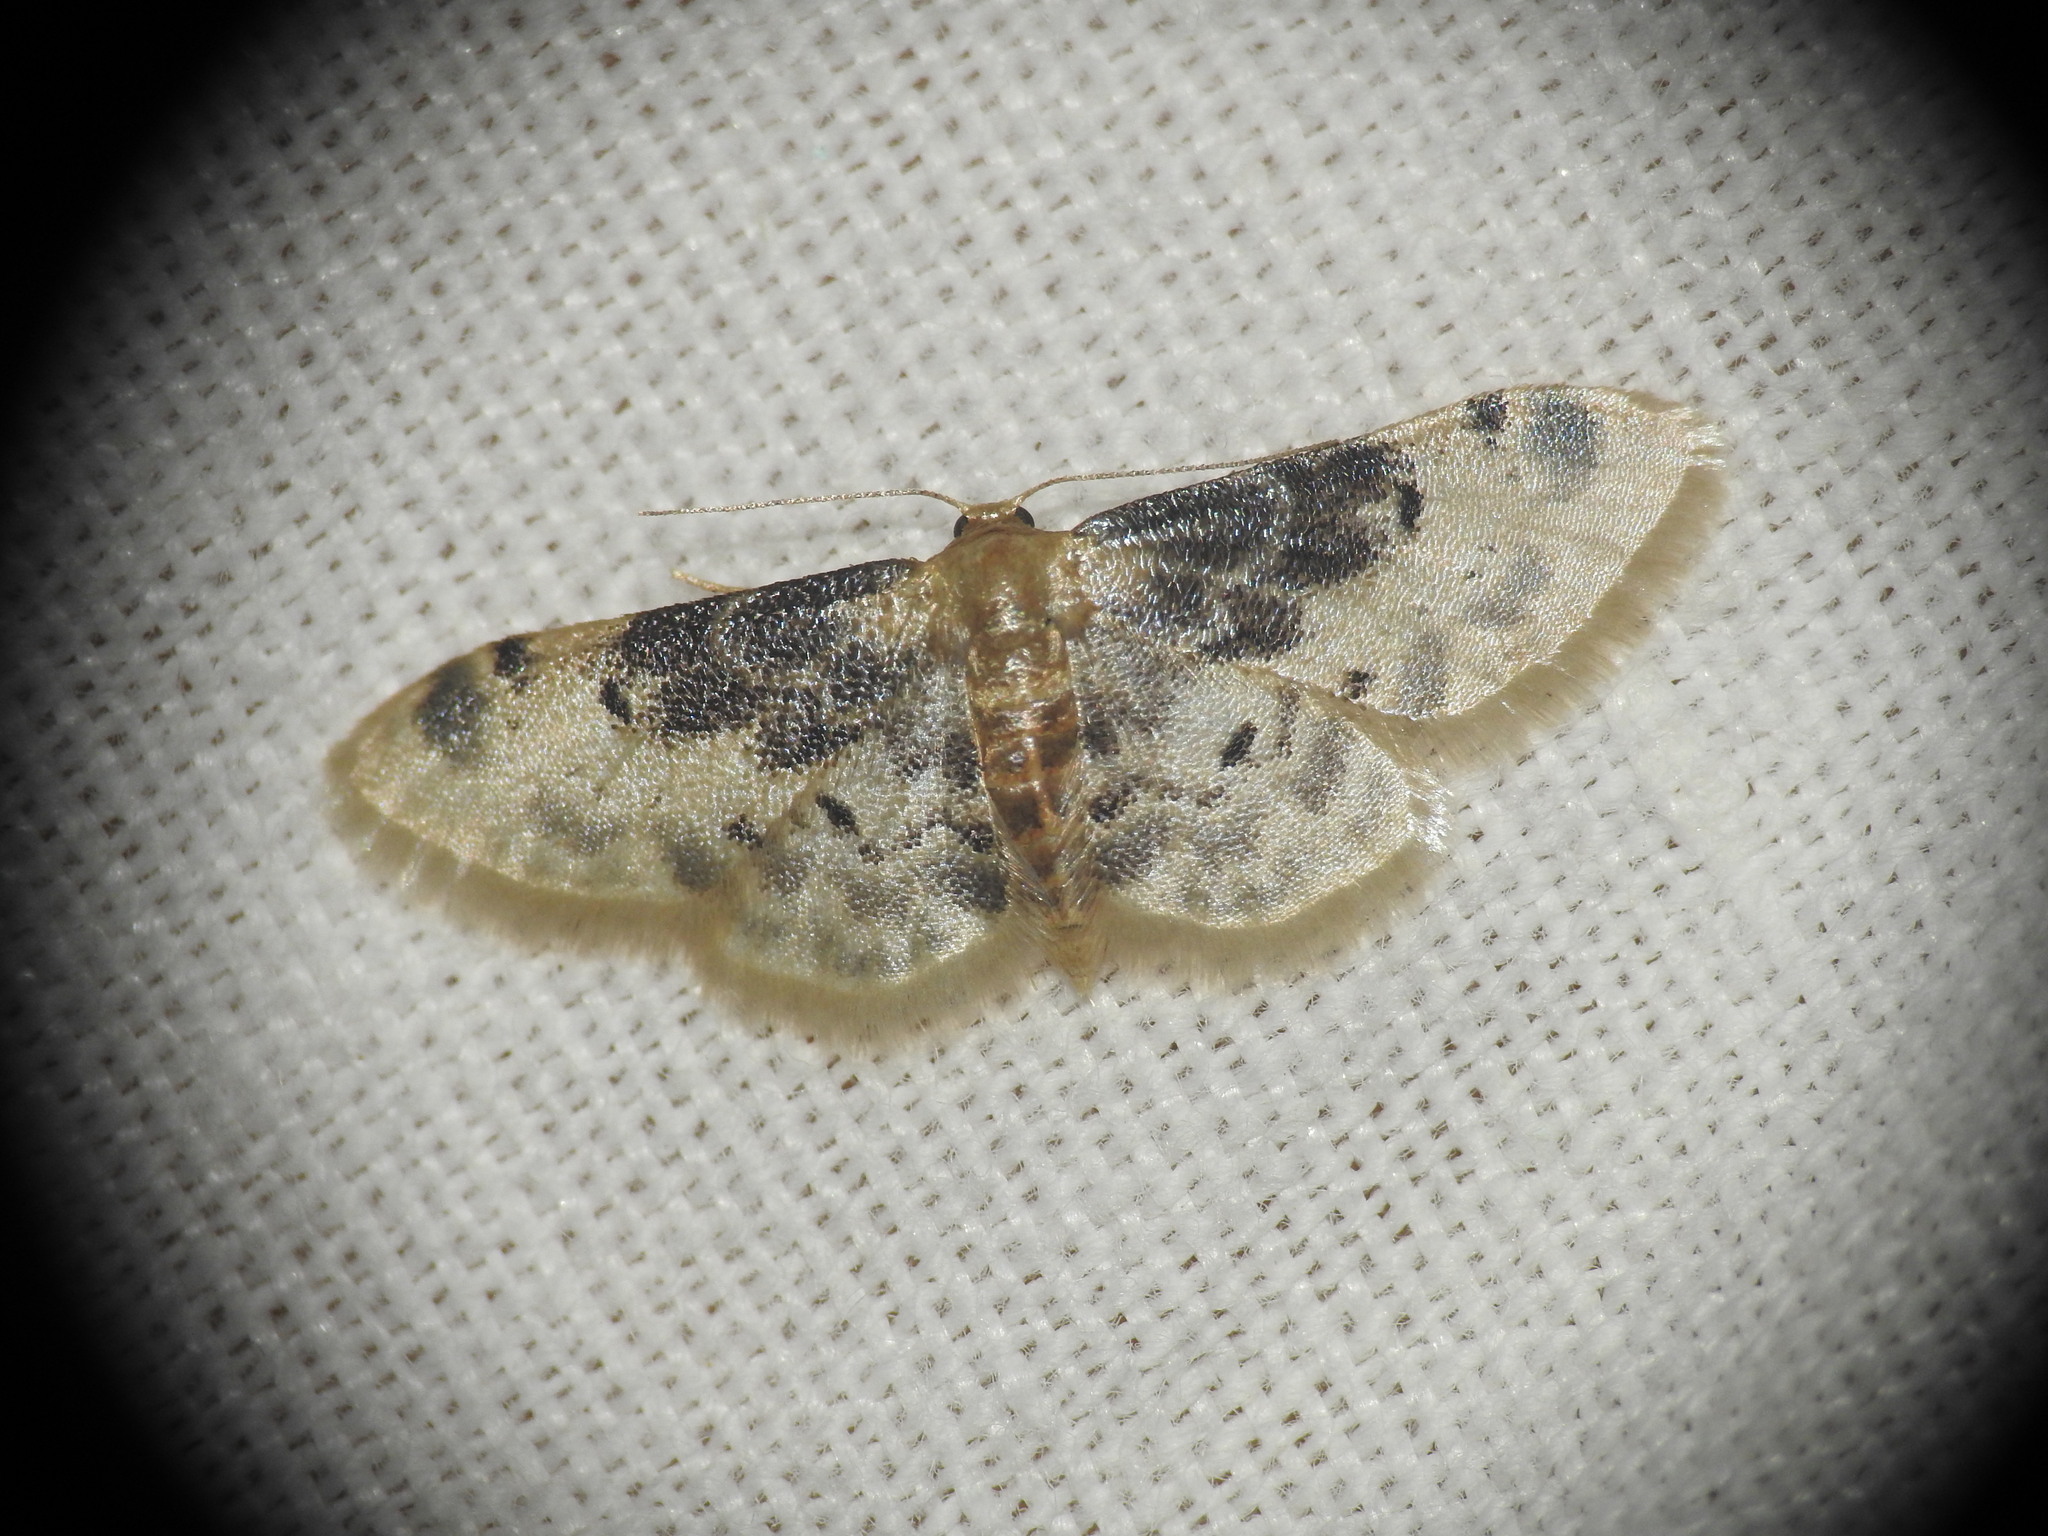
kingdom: Animalia
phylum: Arthropoda
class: Insecta
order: Lepidoptera
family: Geometridae
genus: Idaea
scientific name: Idaea filicata
